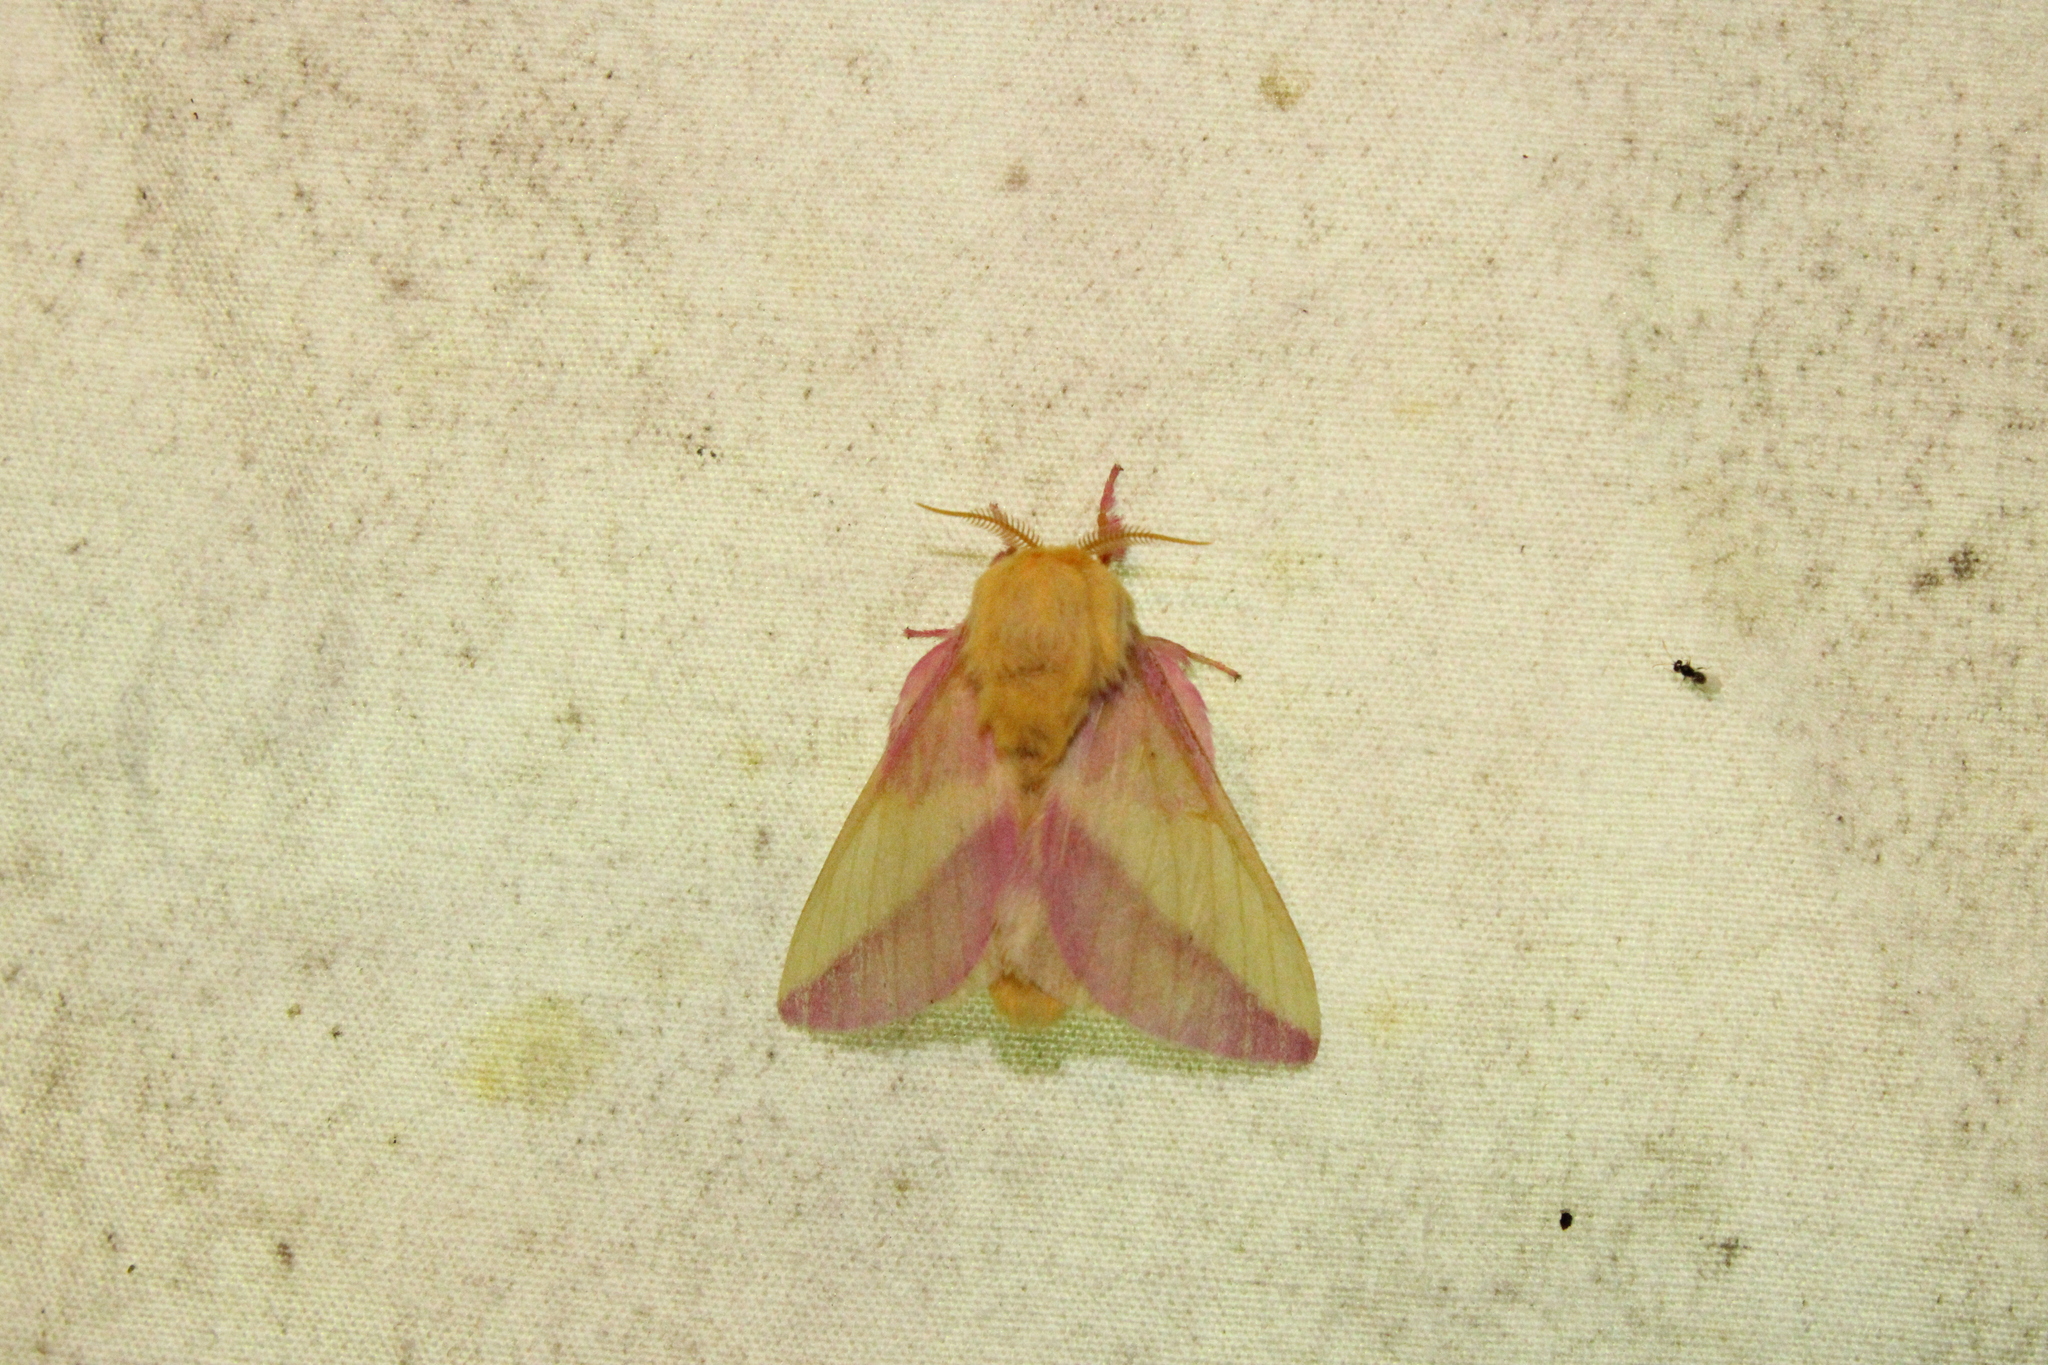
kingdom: Animalia
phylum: Arthropoda
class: Insecta
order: Lepidoptera
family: Saturniidae
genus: Dryocampa
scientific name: Dryocampa rubicunda
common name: Rosy maple moth
